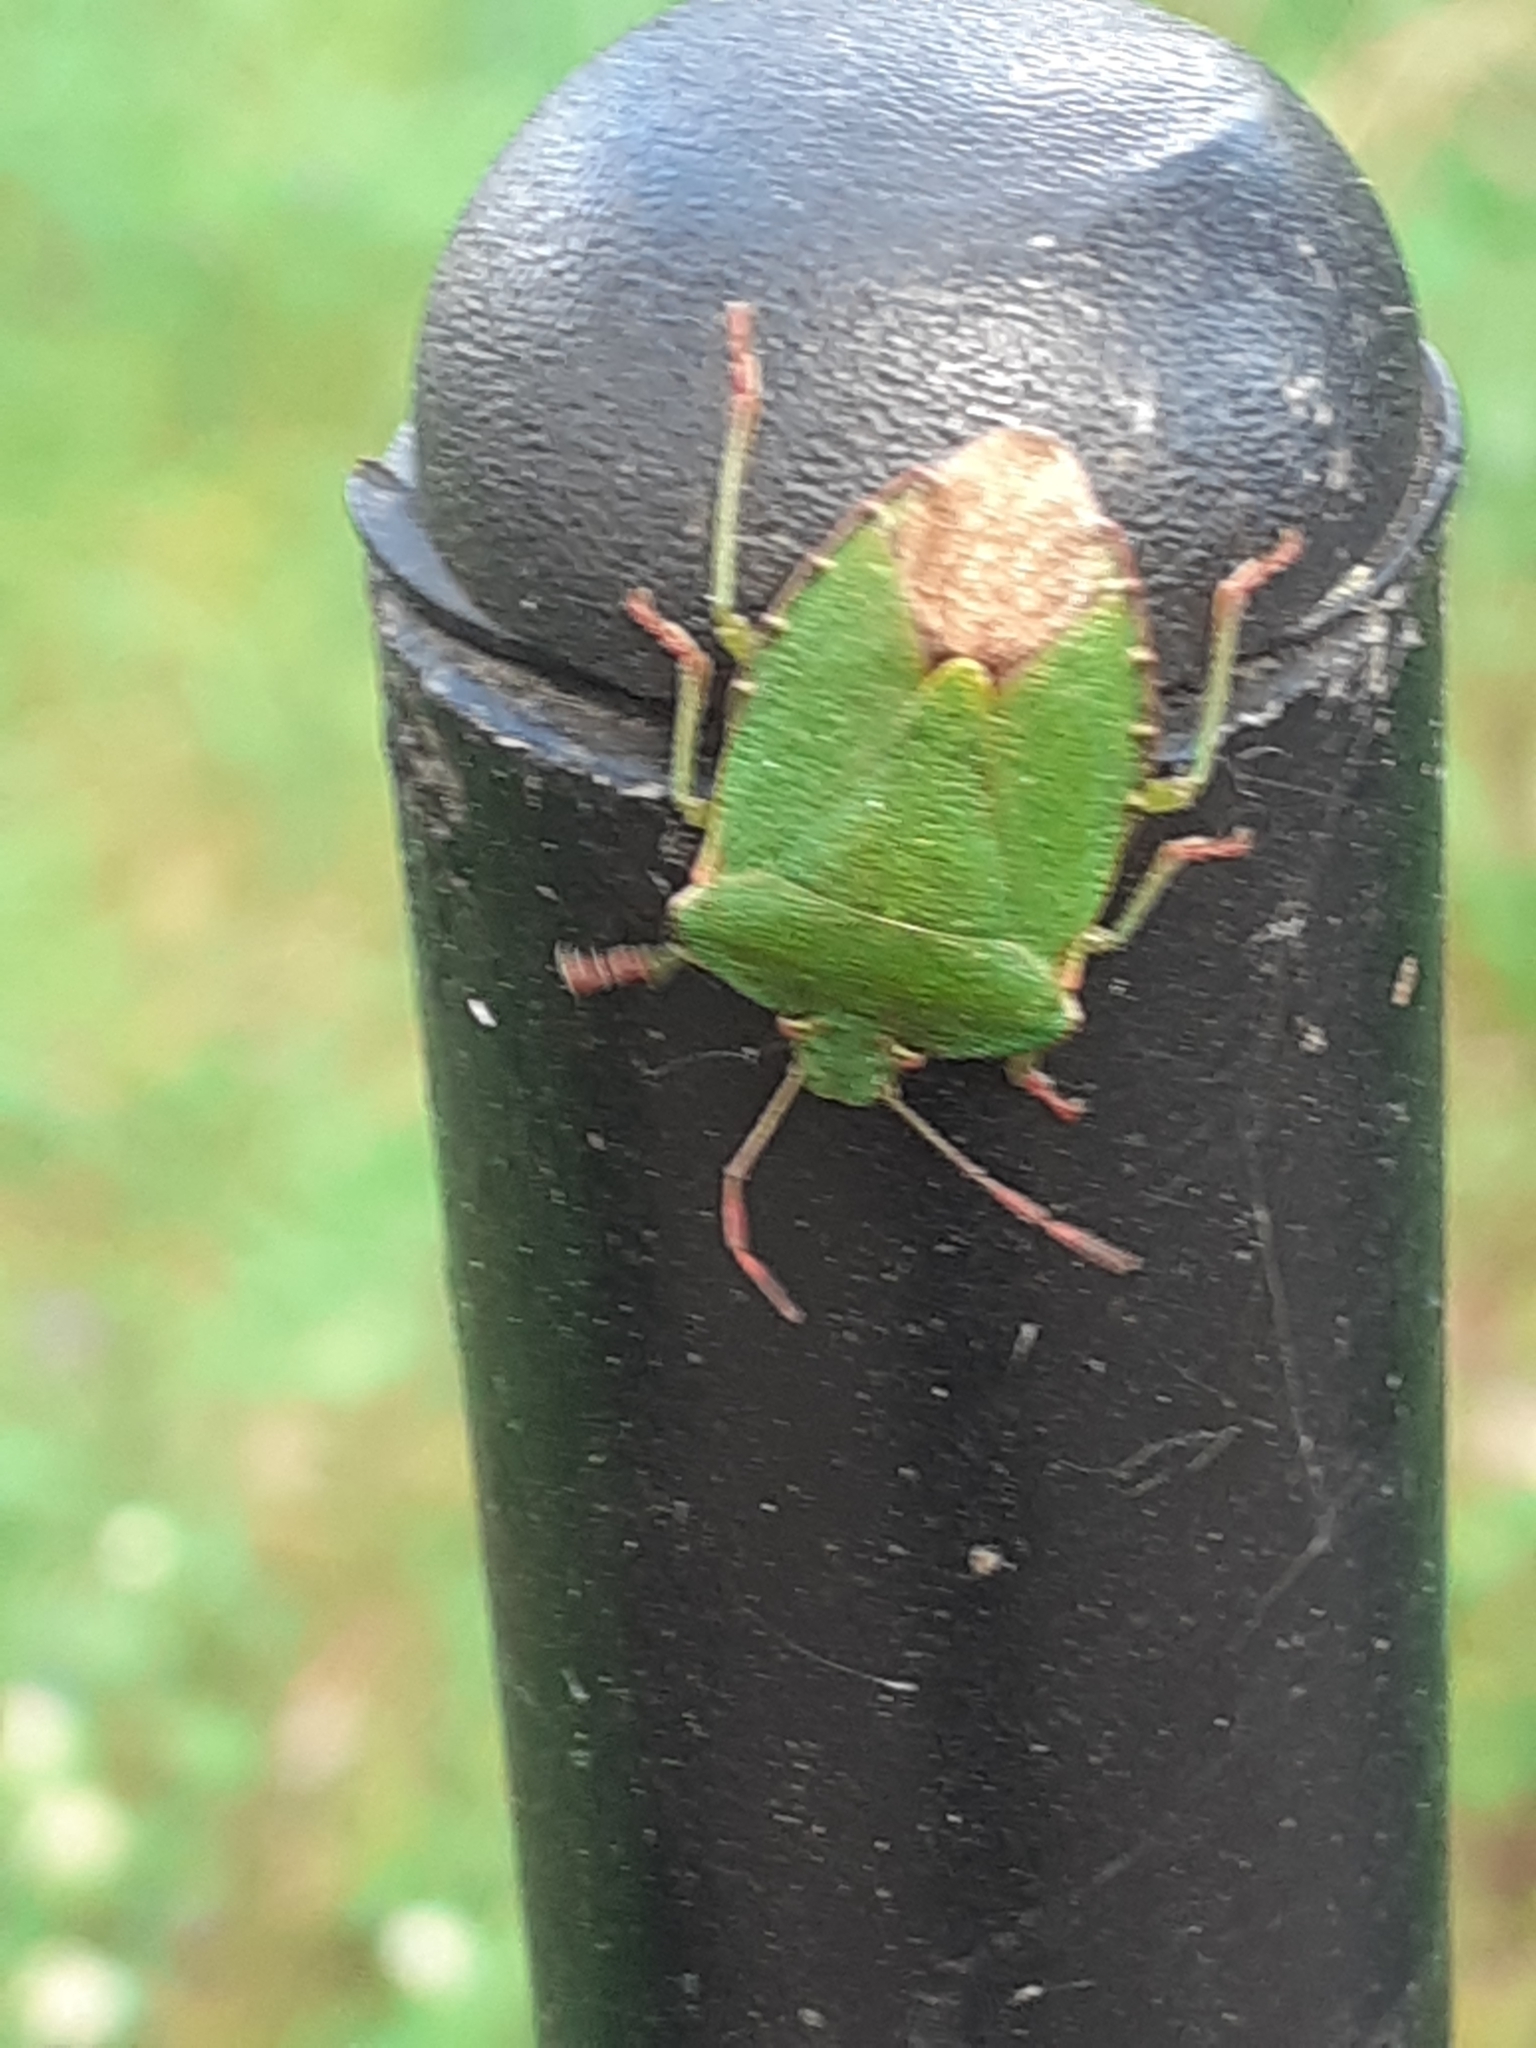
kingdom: Animalia
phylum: Arthropoda
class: Insecta
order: Hemiptera
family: Pentatomidae
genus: Palomena
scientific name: Palomena prasina
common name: Green shieldbug
